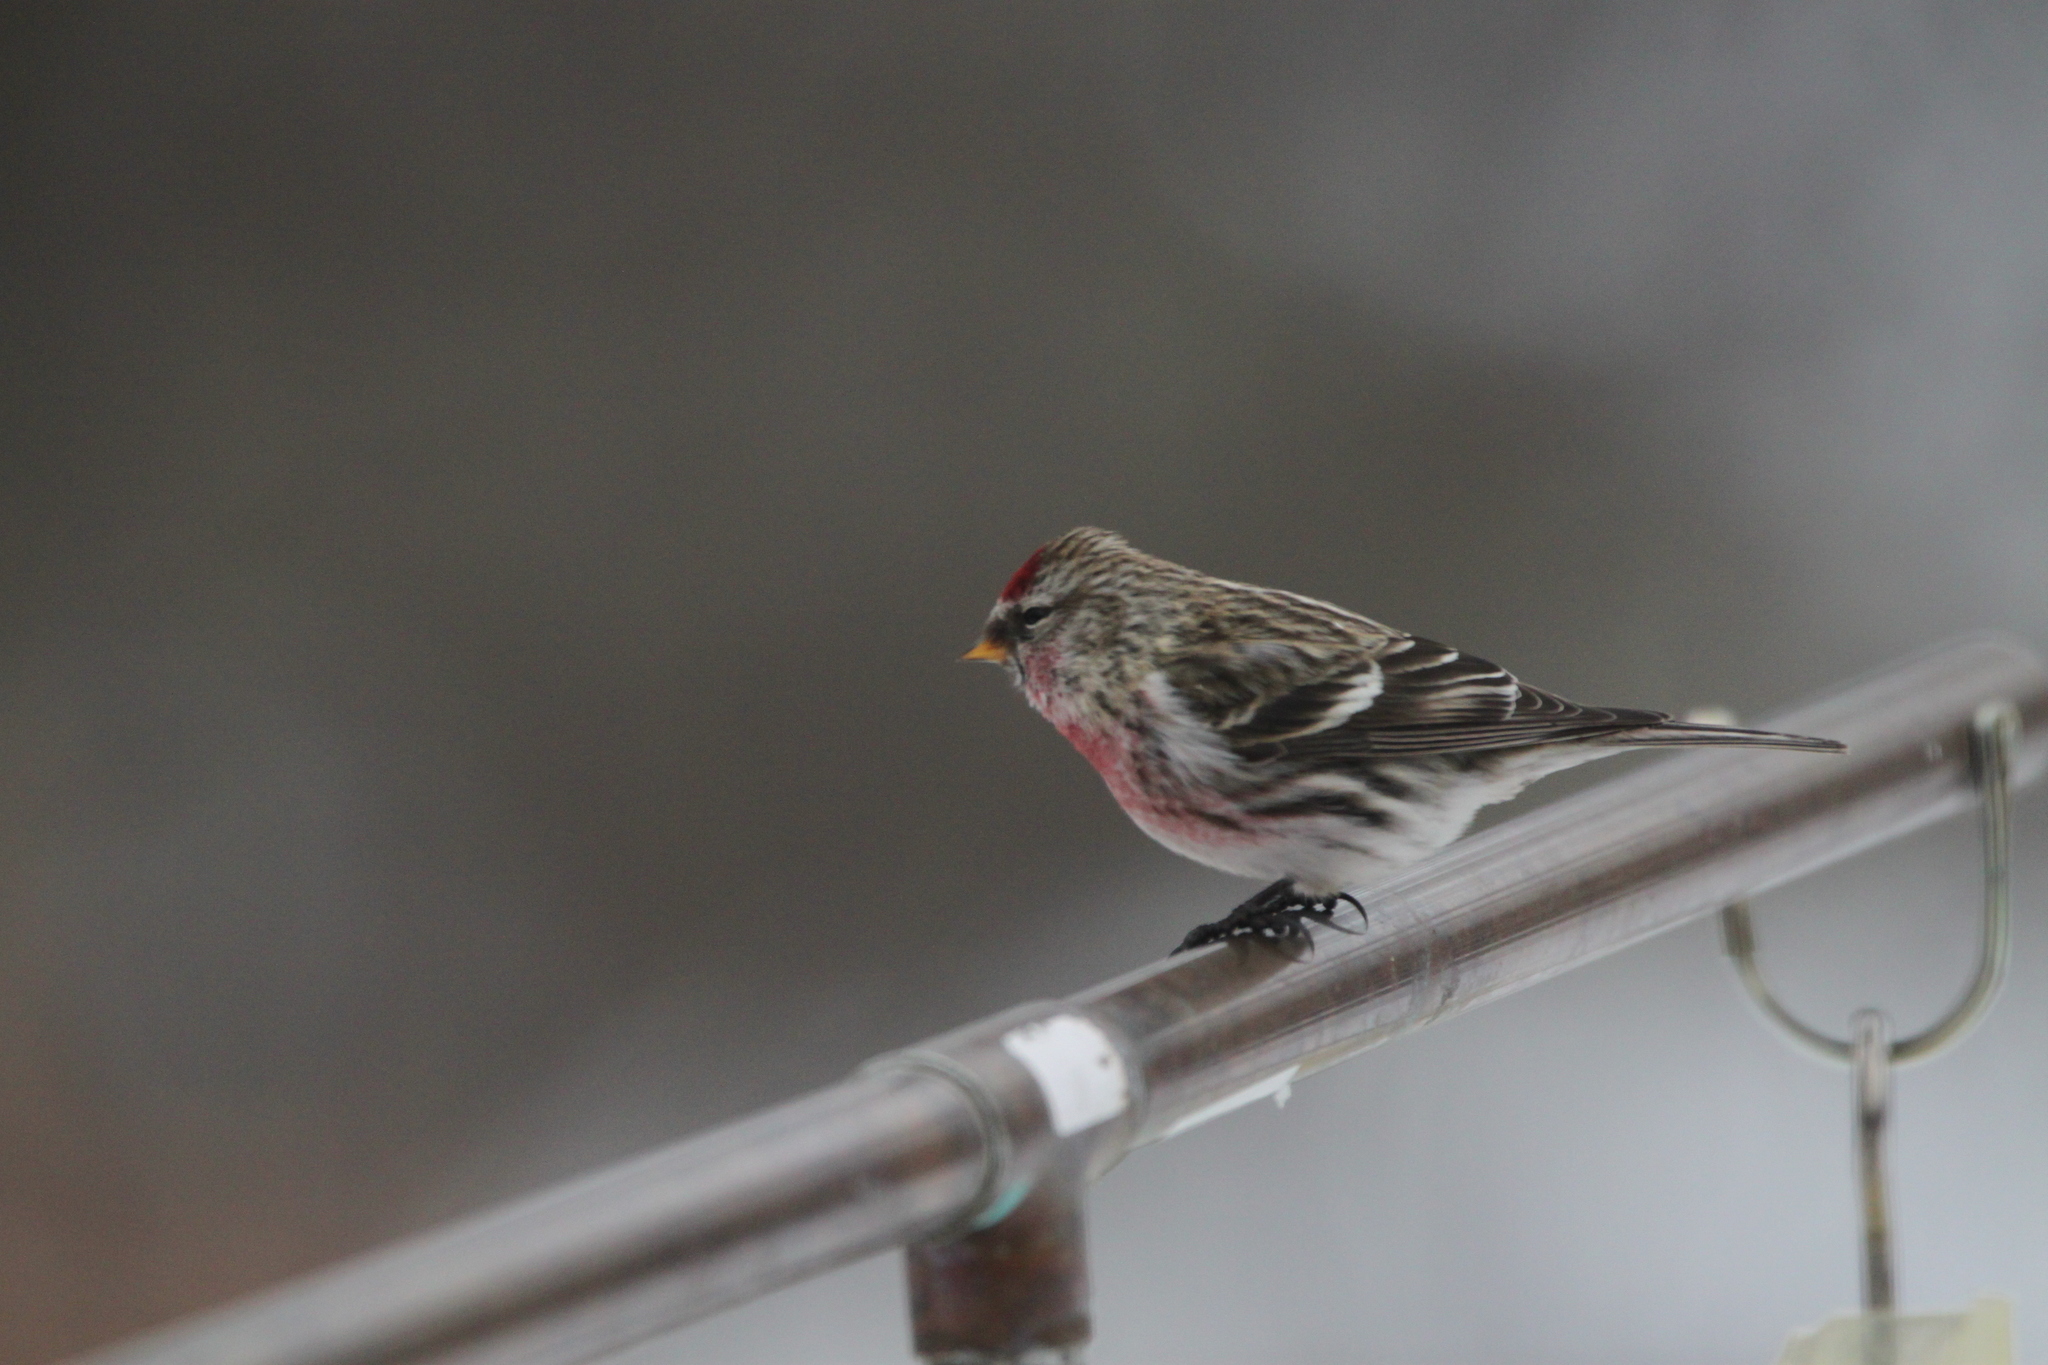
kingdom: Animalia
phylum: Chordata
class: Aves
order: Passeriformes
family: Fringillidae
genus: Acanthis
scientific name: Acanthis flammea
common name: Common redpoll
